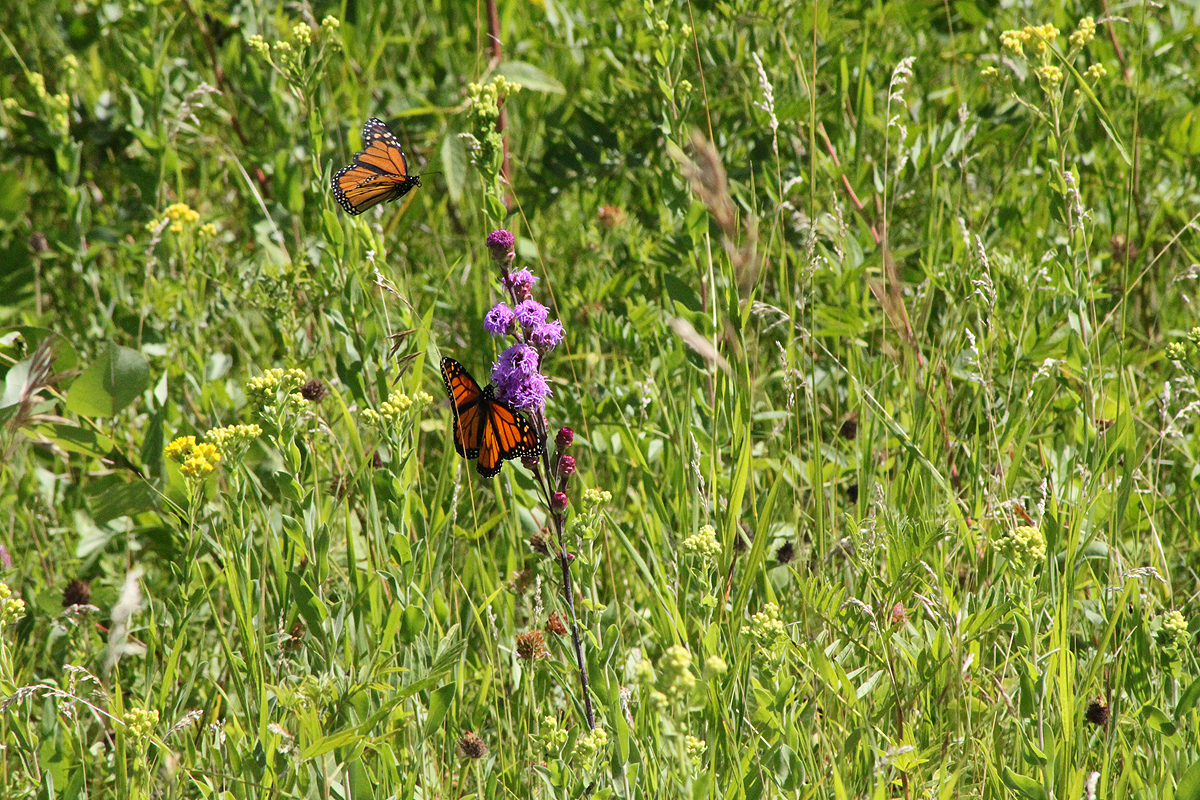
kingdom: Animalia
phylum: Arthropoda
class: Insecta
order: Lepidoptera
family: Nymphalidae
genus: Danaus
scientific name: Danaus plexippus
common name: Monarch
